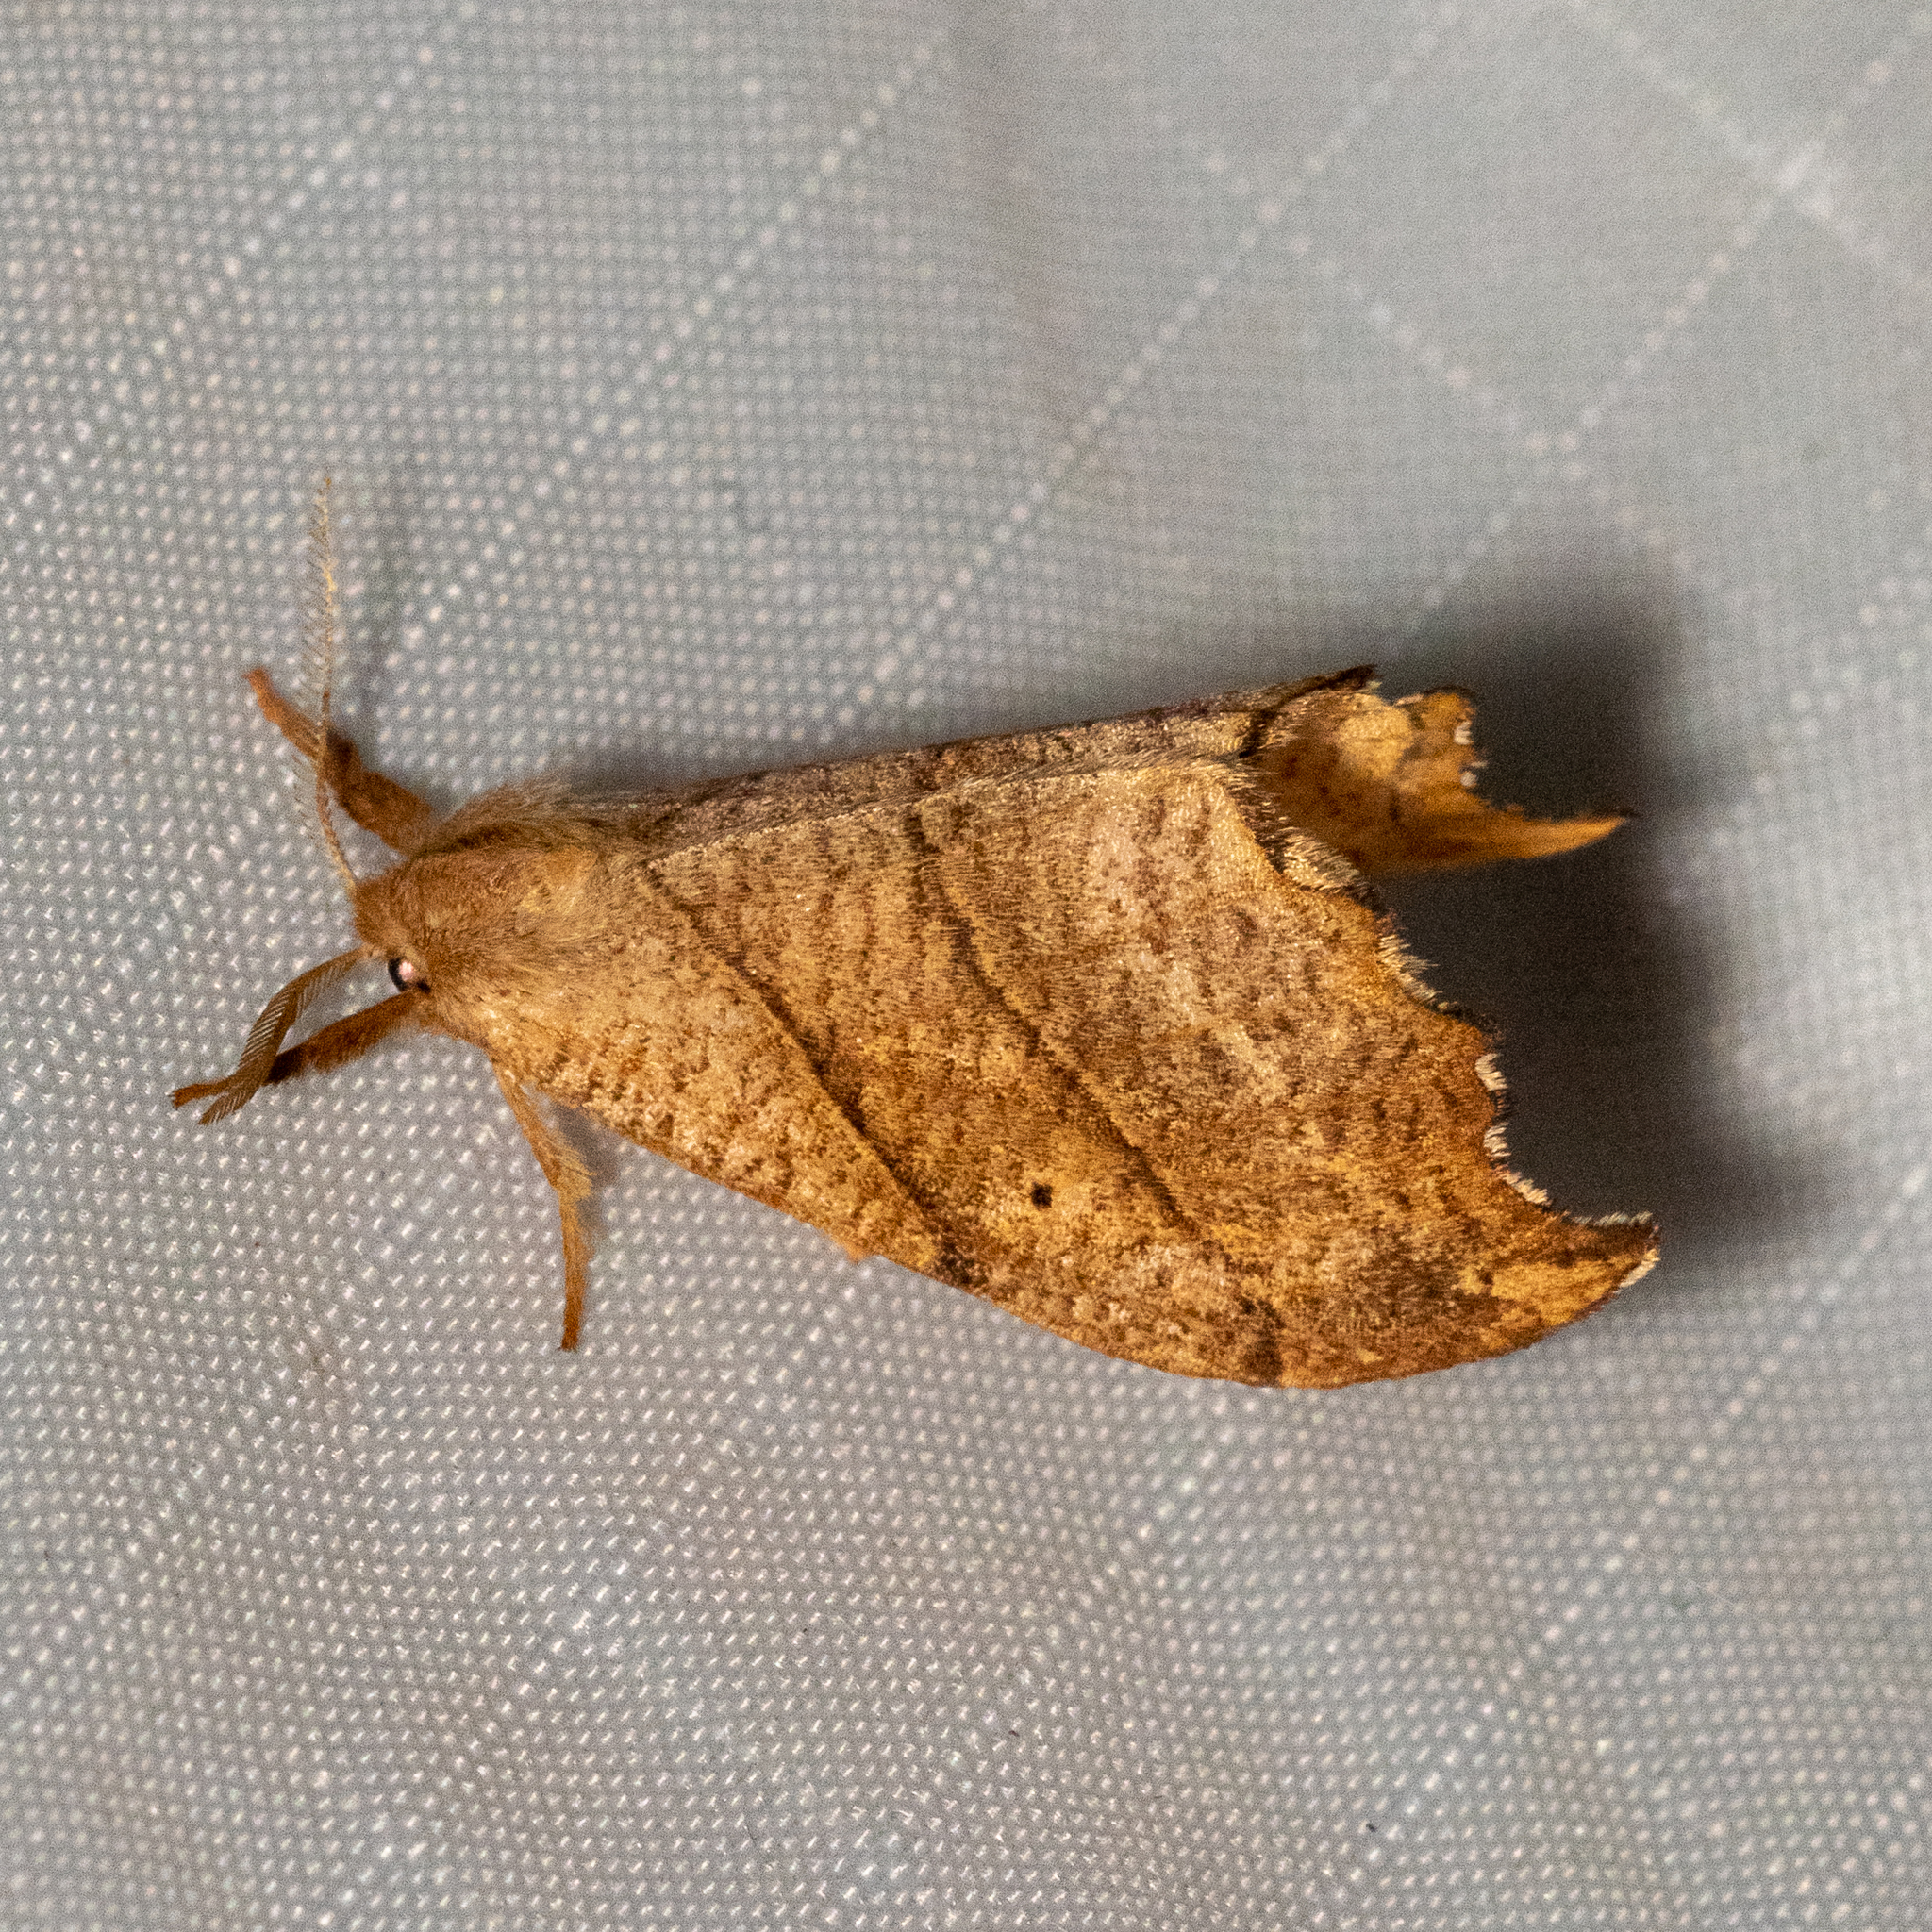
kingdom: Animalia
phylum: Arthropoda
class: Insecta
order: Lepidoptera
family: Drepanidae
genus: Falcaria
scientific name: Falcaria bilineata
